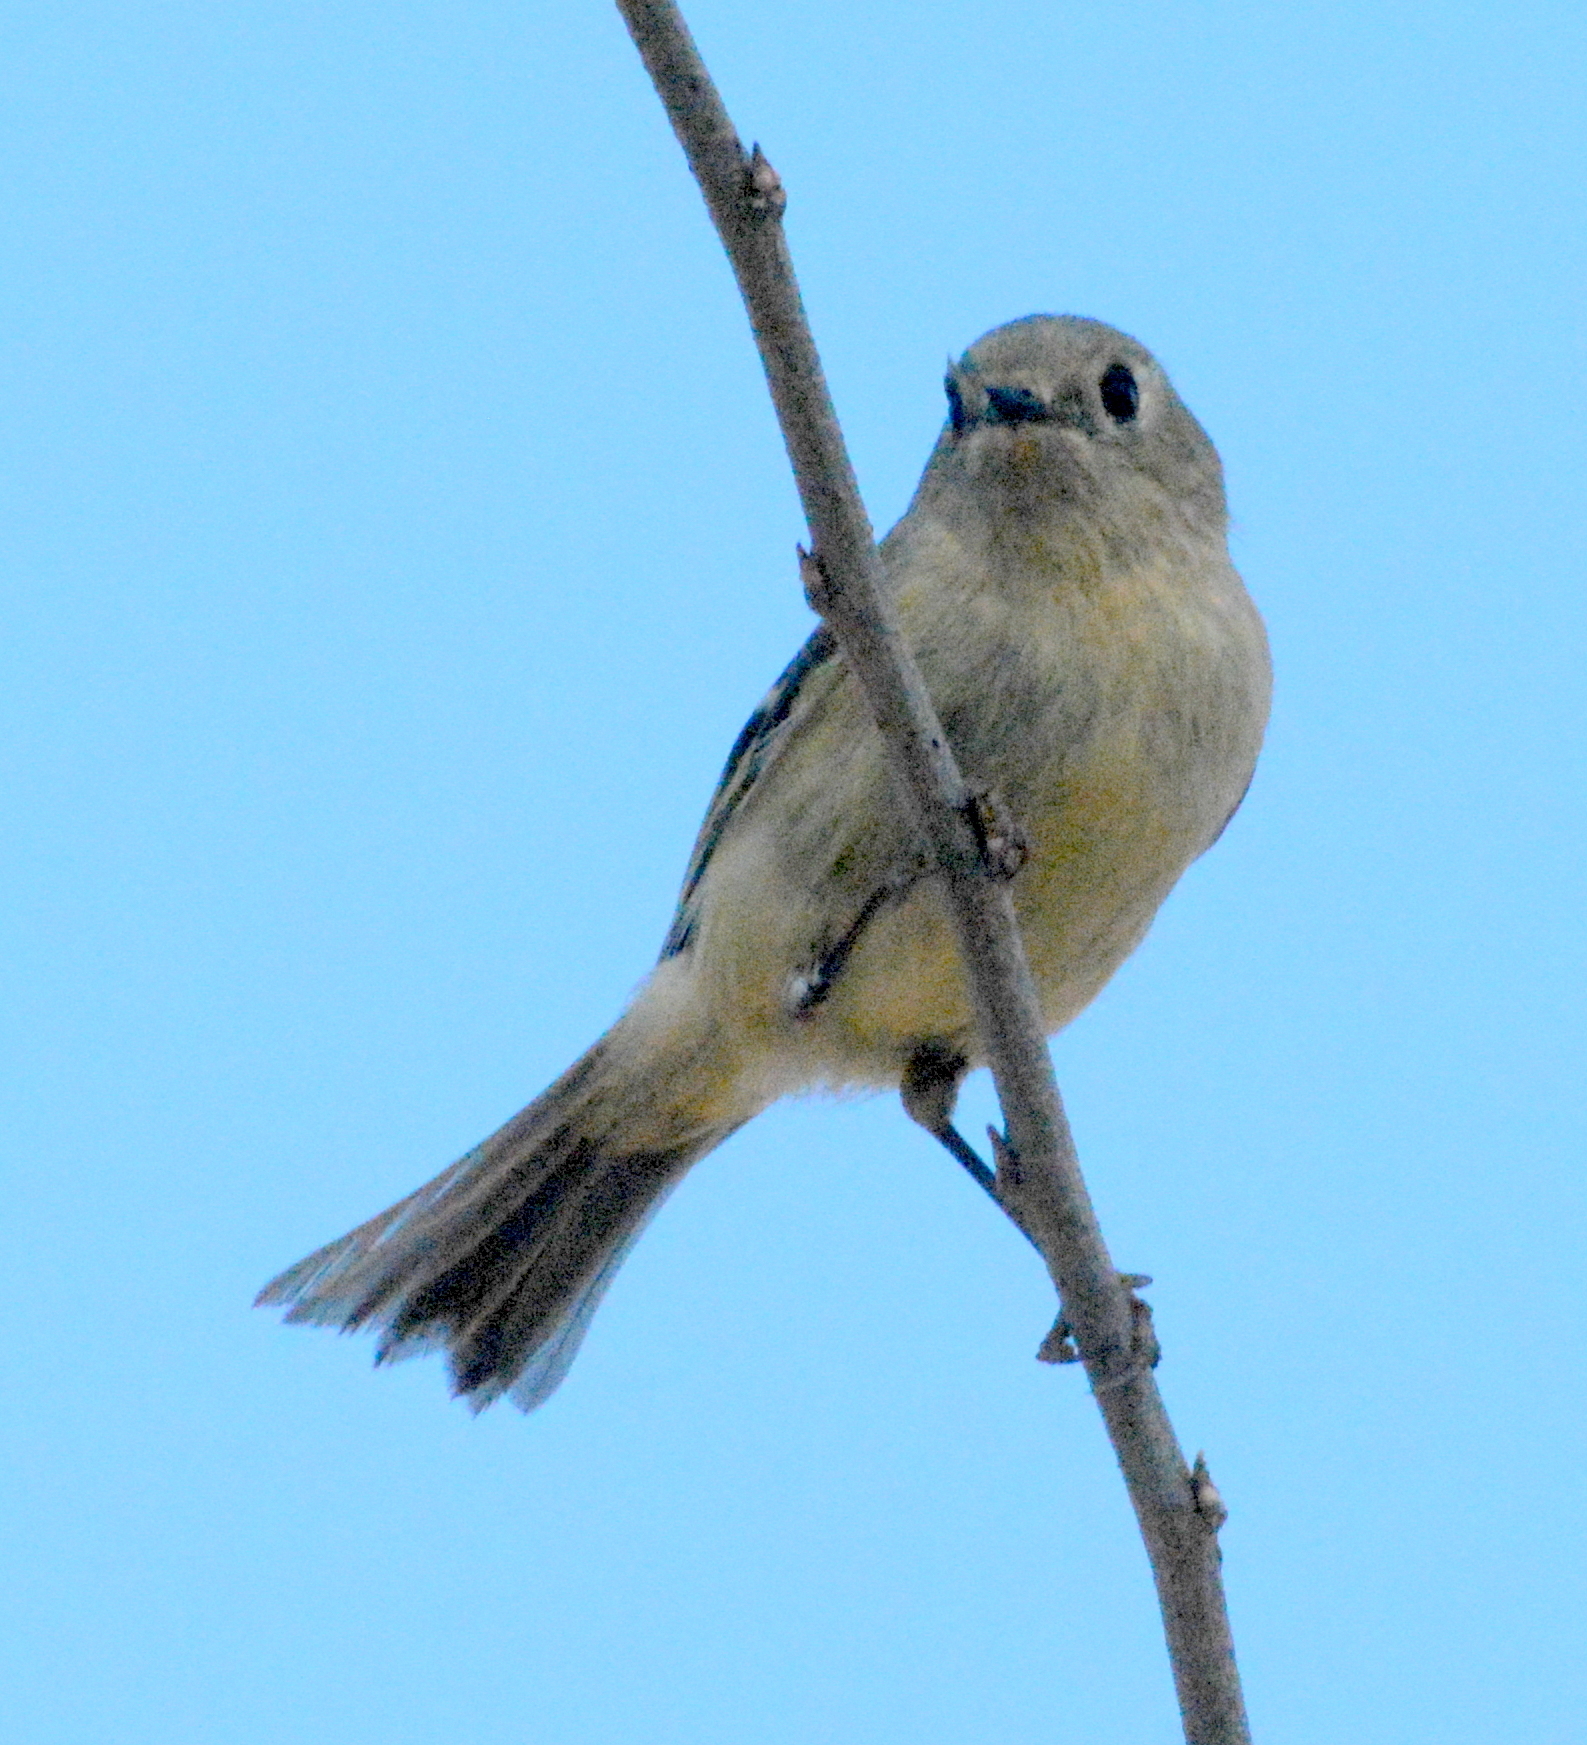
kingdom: Animalia
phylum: Chordata
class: Aves
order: Passeriformes
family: Regulidae
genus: Regulus
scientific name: Regulus calendula
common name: Ruby-crowned kinglet
